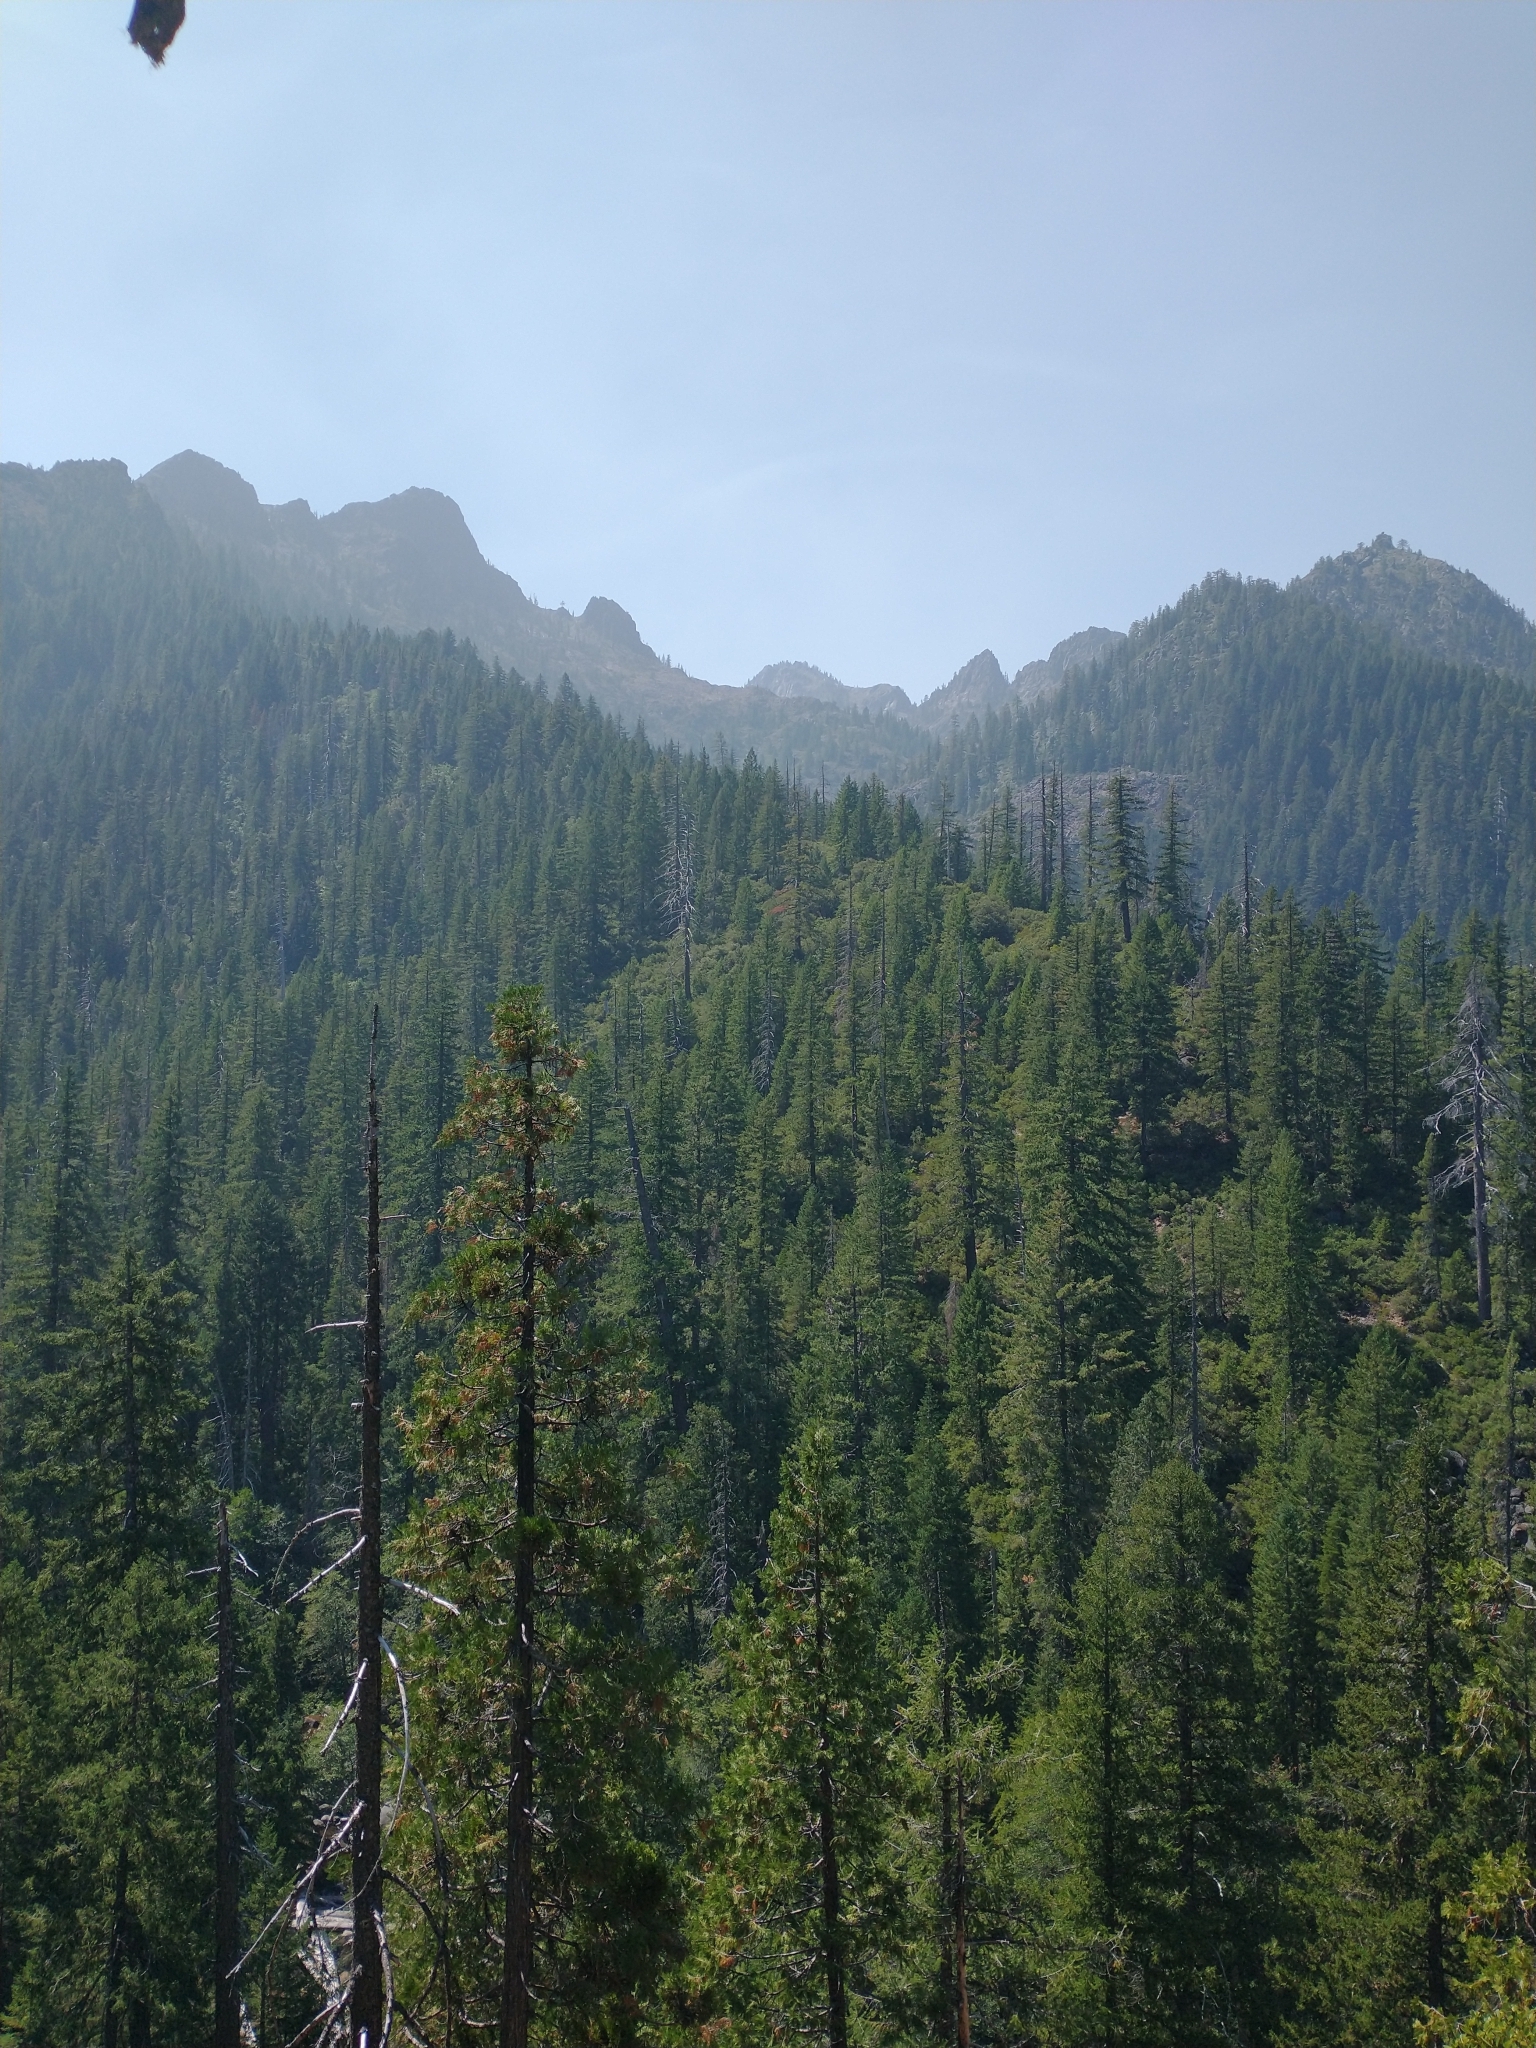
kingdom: Plantae
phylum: Tracheophyta
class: Pinopsida
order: Pinales
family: Cupressaceae
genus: Calocedrus
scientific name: Calocedrus decurrens
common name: Californian incense-cedar
